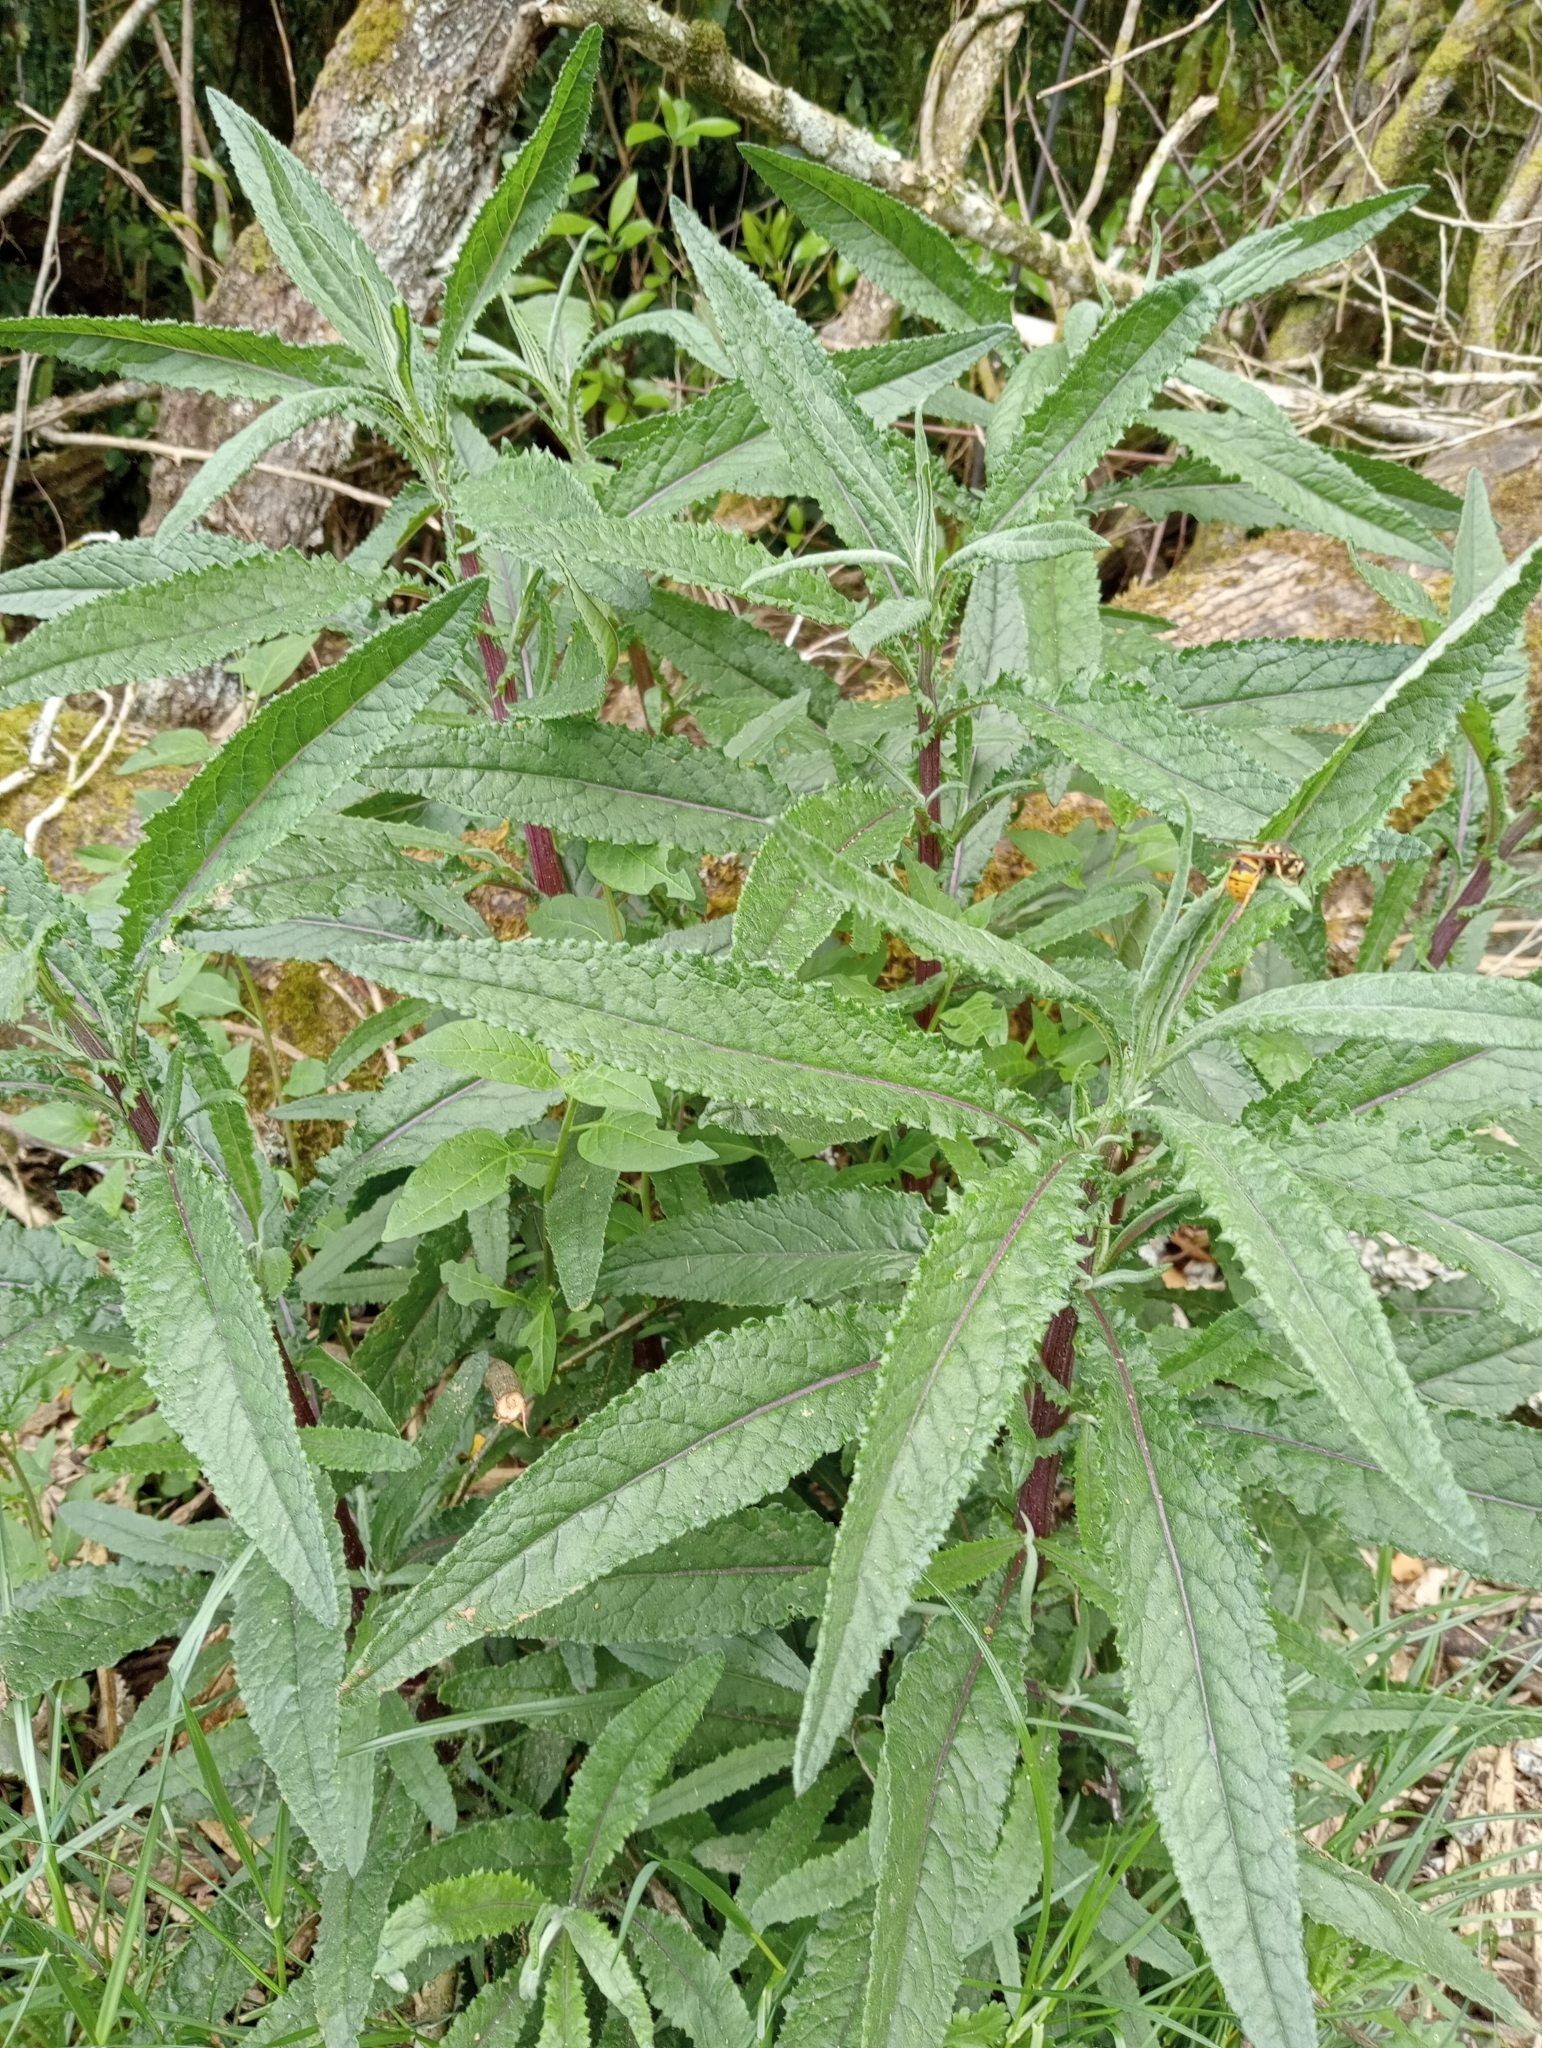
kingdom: Plantae
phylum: Tracheophyta
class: Magnoliopsida
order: Asterales
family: Asteraceae
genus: Senecio
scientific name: Senecio minimus
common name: Toothed fireweed
